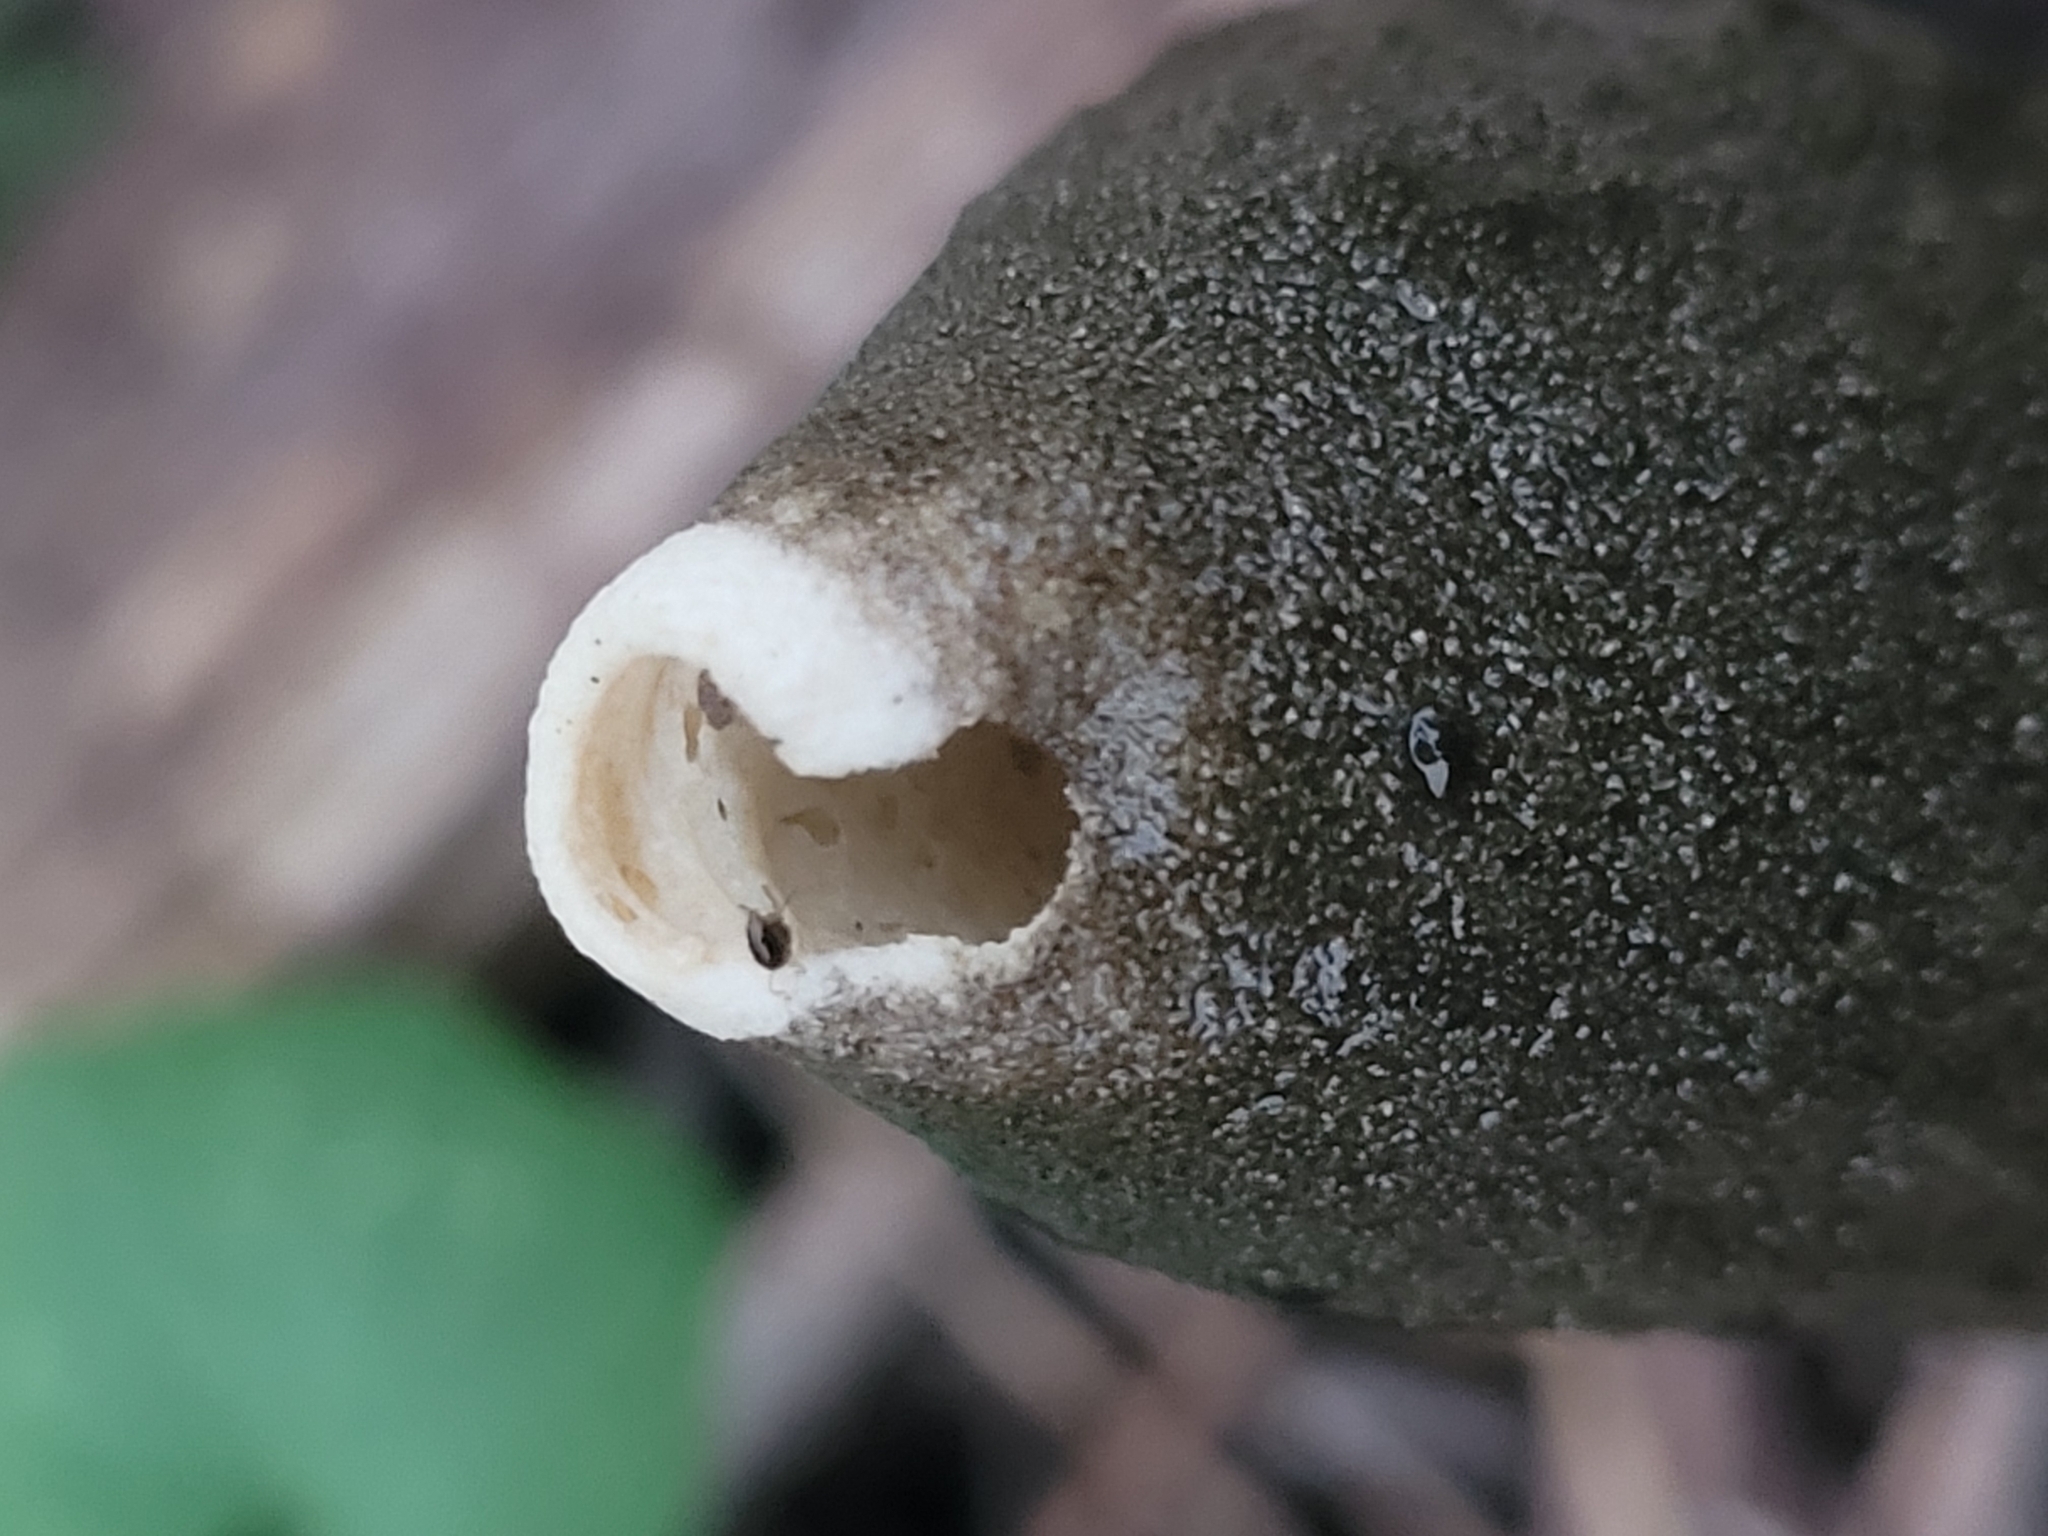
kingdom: Fungi
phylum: Basidiomycota
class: Agaricomycetes
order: Phallales
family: Phallaceae
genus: Phallus
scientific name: Phallus ravenelii
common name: Ravenel's stinkhorn
